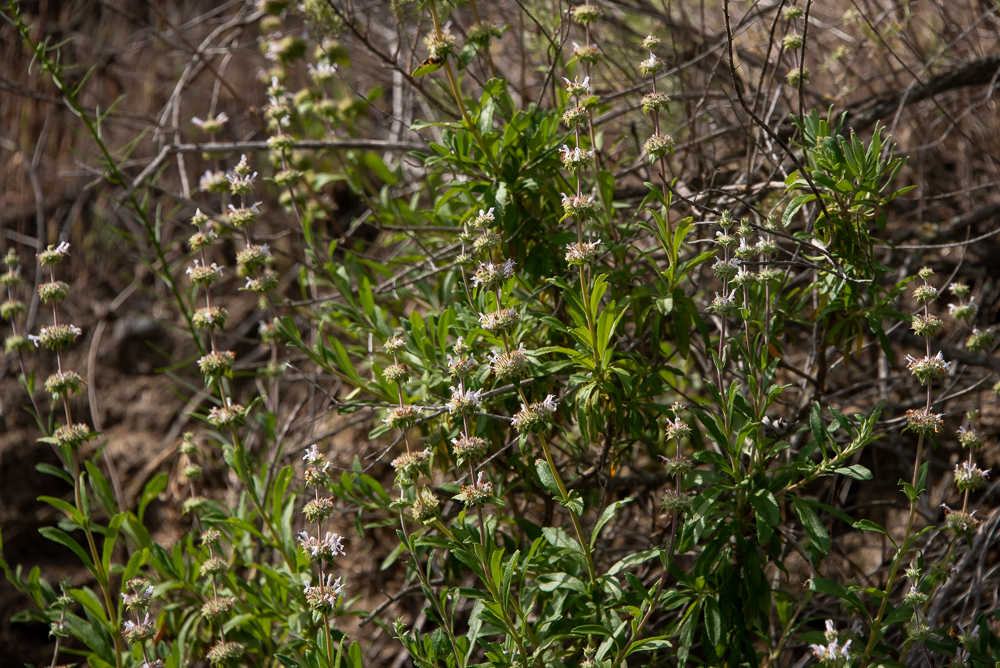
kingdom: Plantae
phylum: Tracheophyta
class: Magnoliopsida
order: Lamiales
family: Lamiaceae
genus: Salvia
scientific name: Salvia mellifera
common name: Black sage
